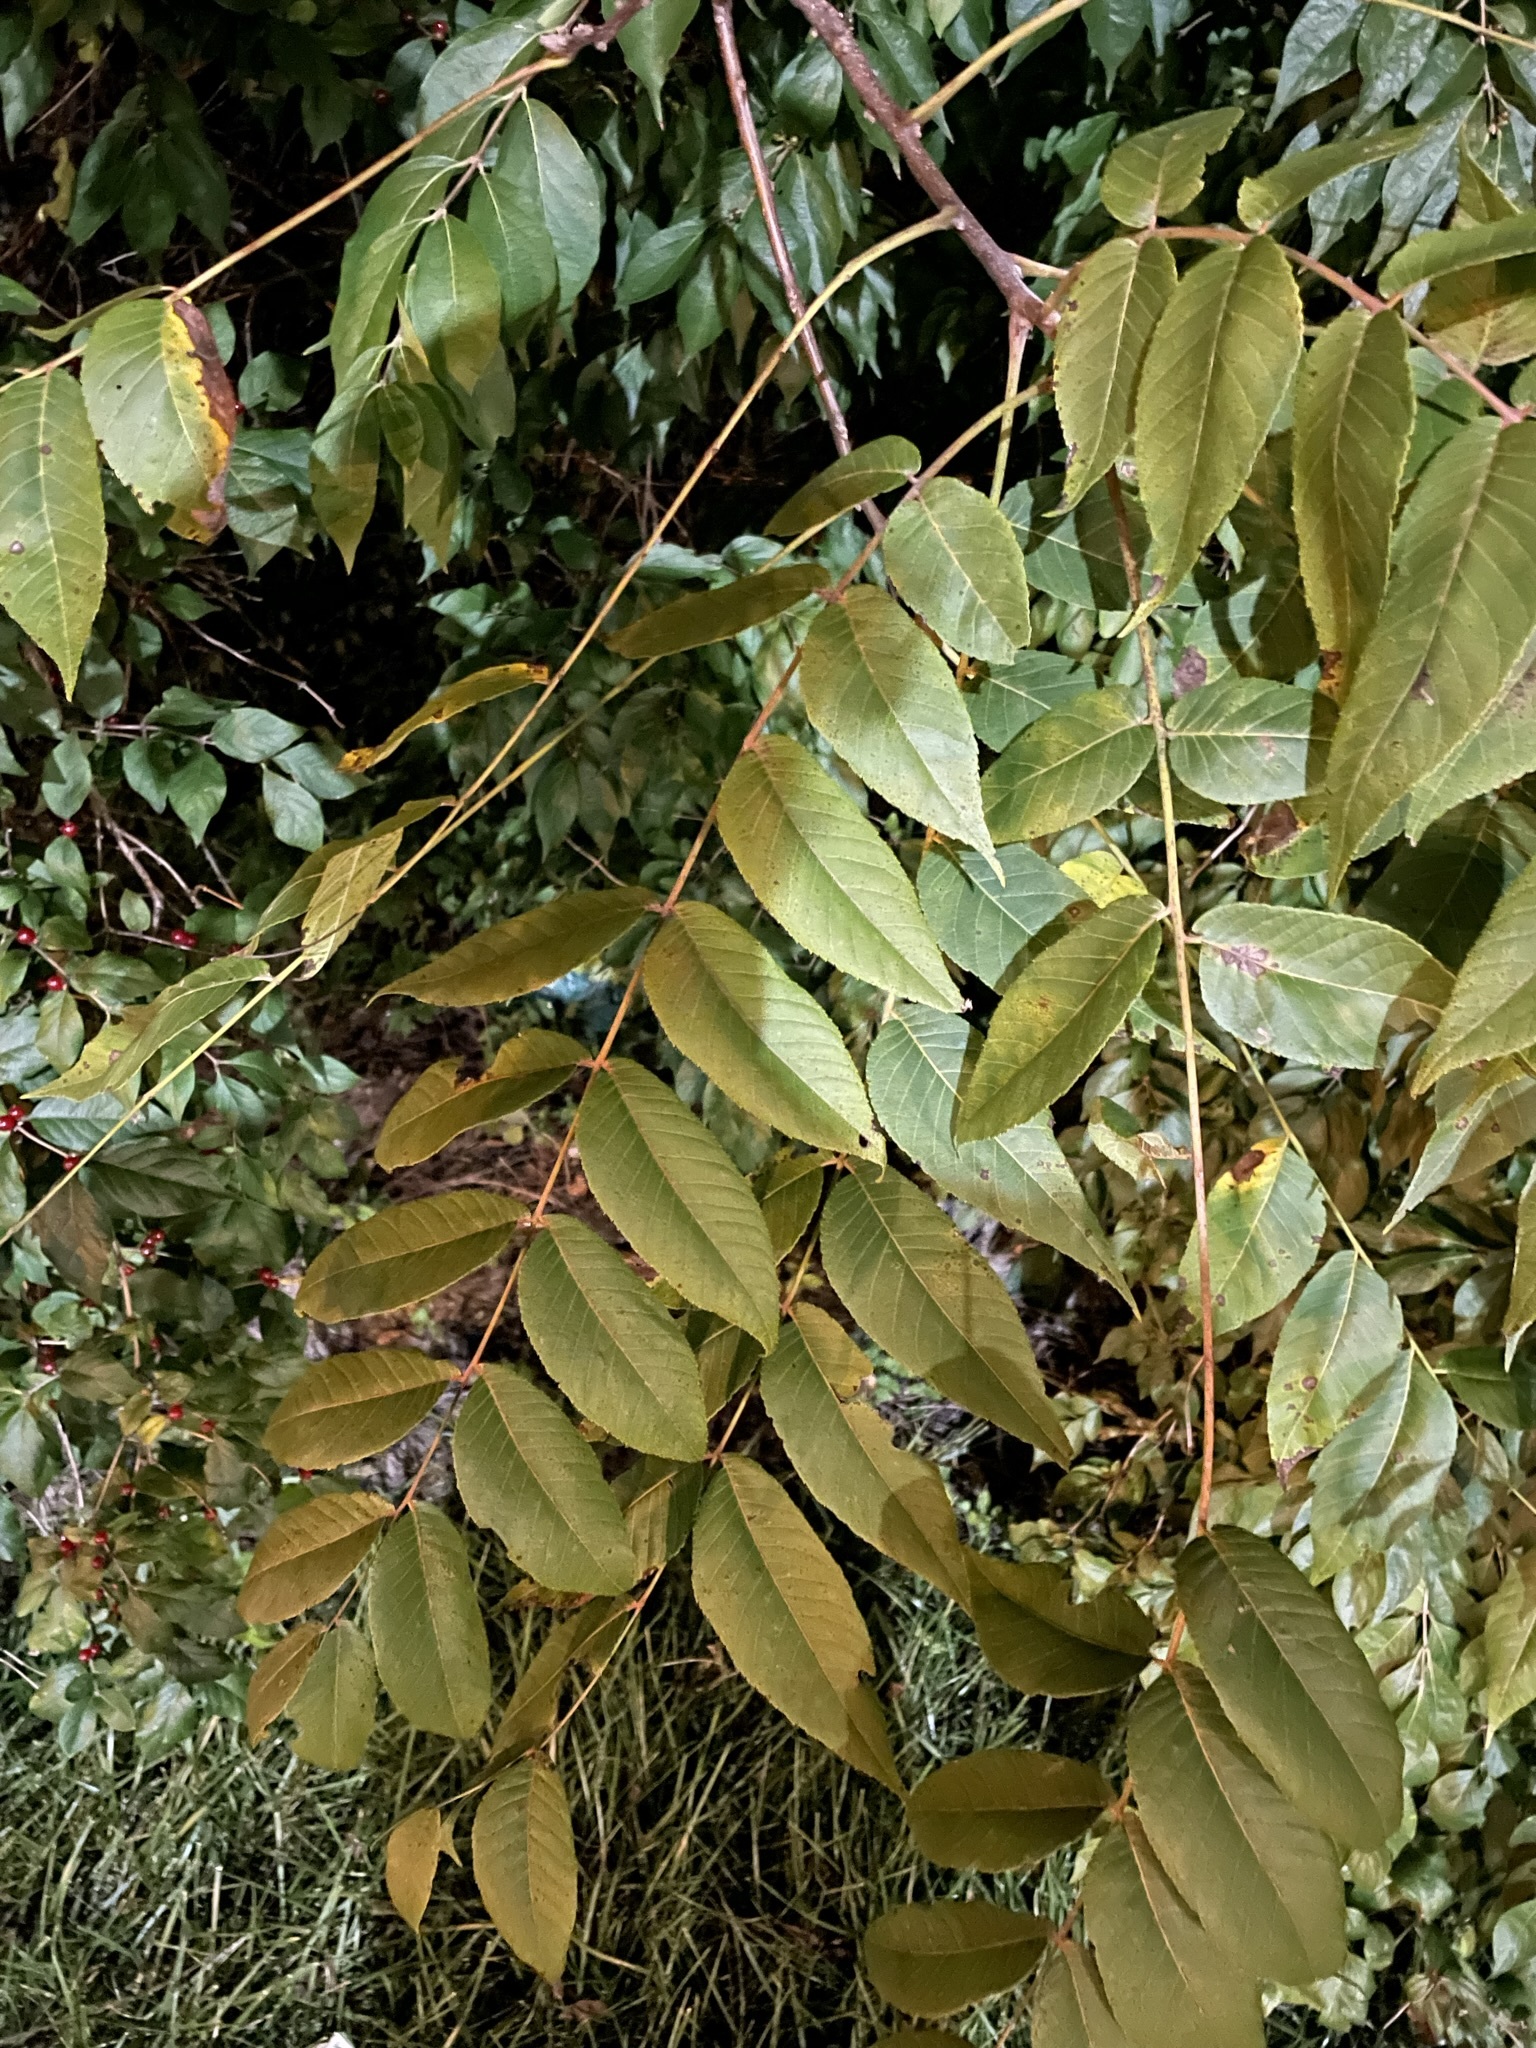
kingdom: Plantae
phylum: Tracheophyta
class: Magnoliopsida
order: Fagales
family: Juglandaceae
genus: Juglans
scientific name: Juglans nigra
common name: Black walnut
